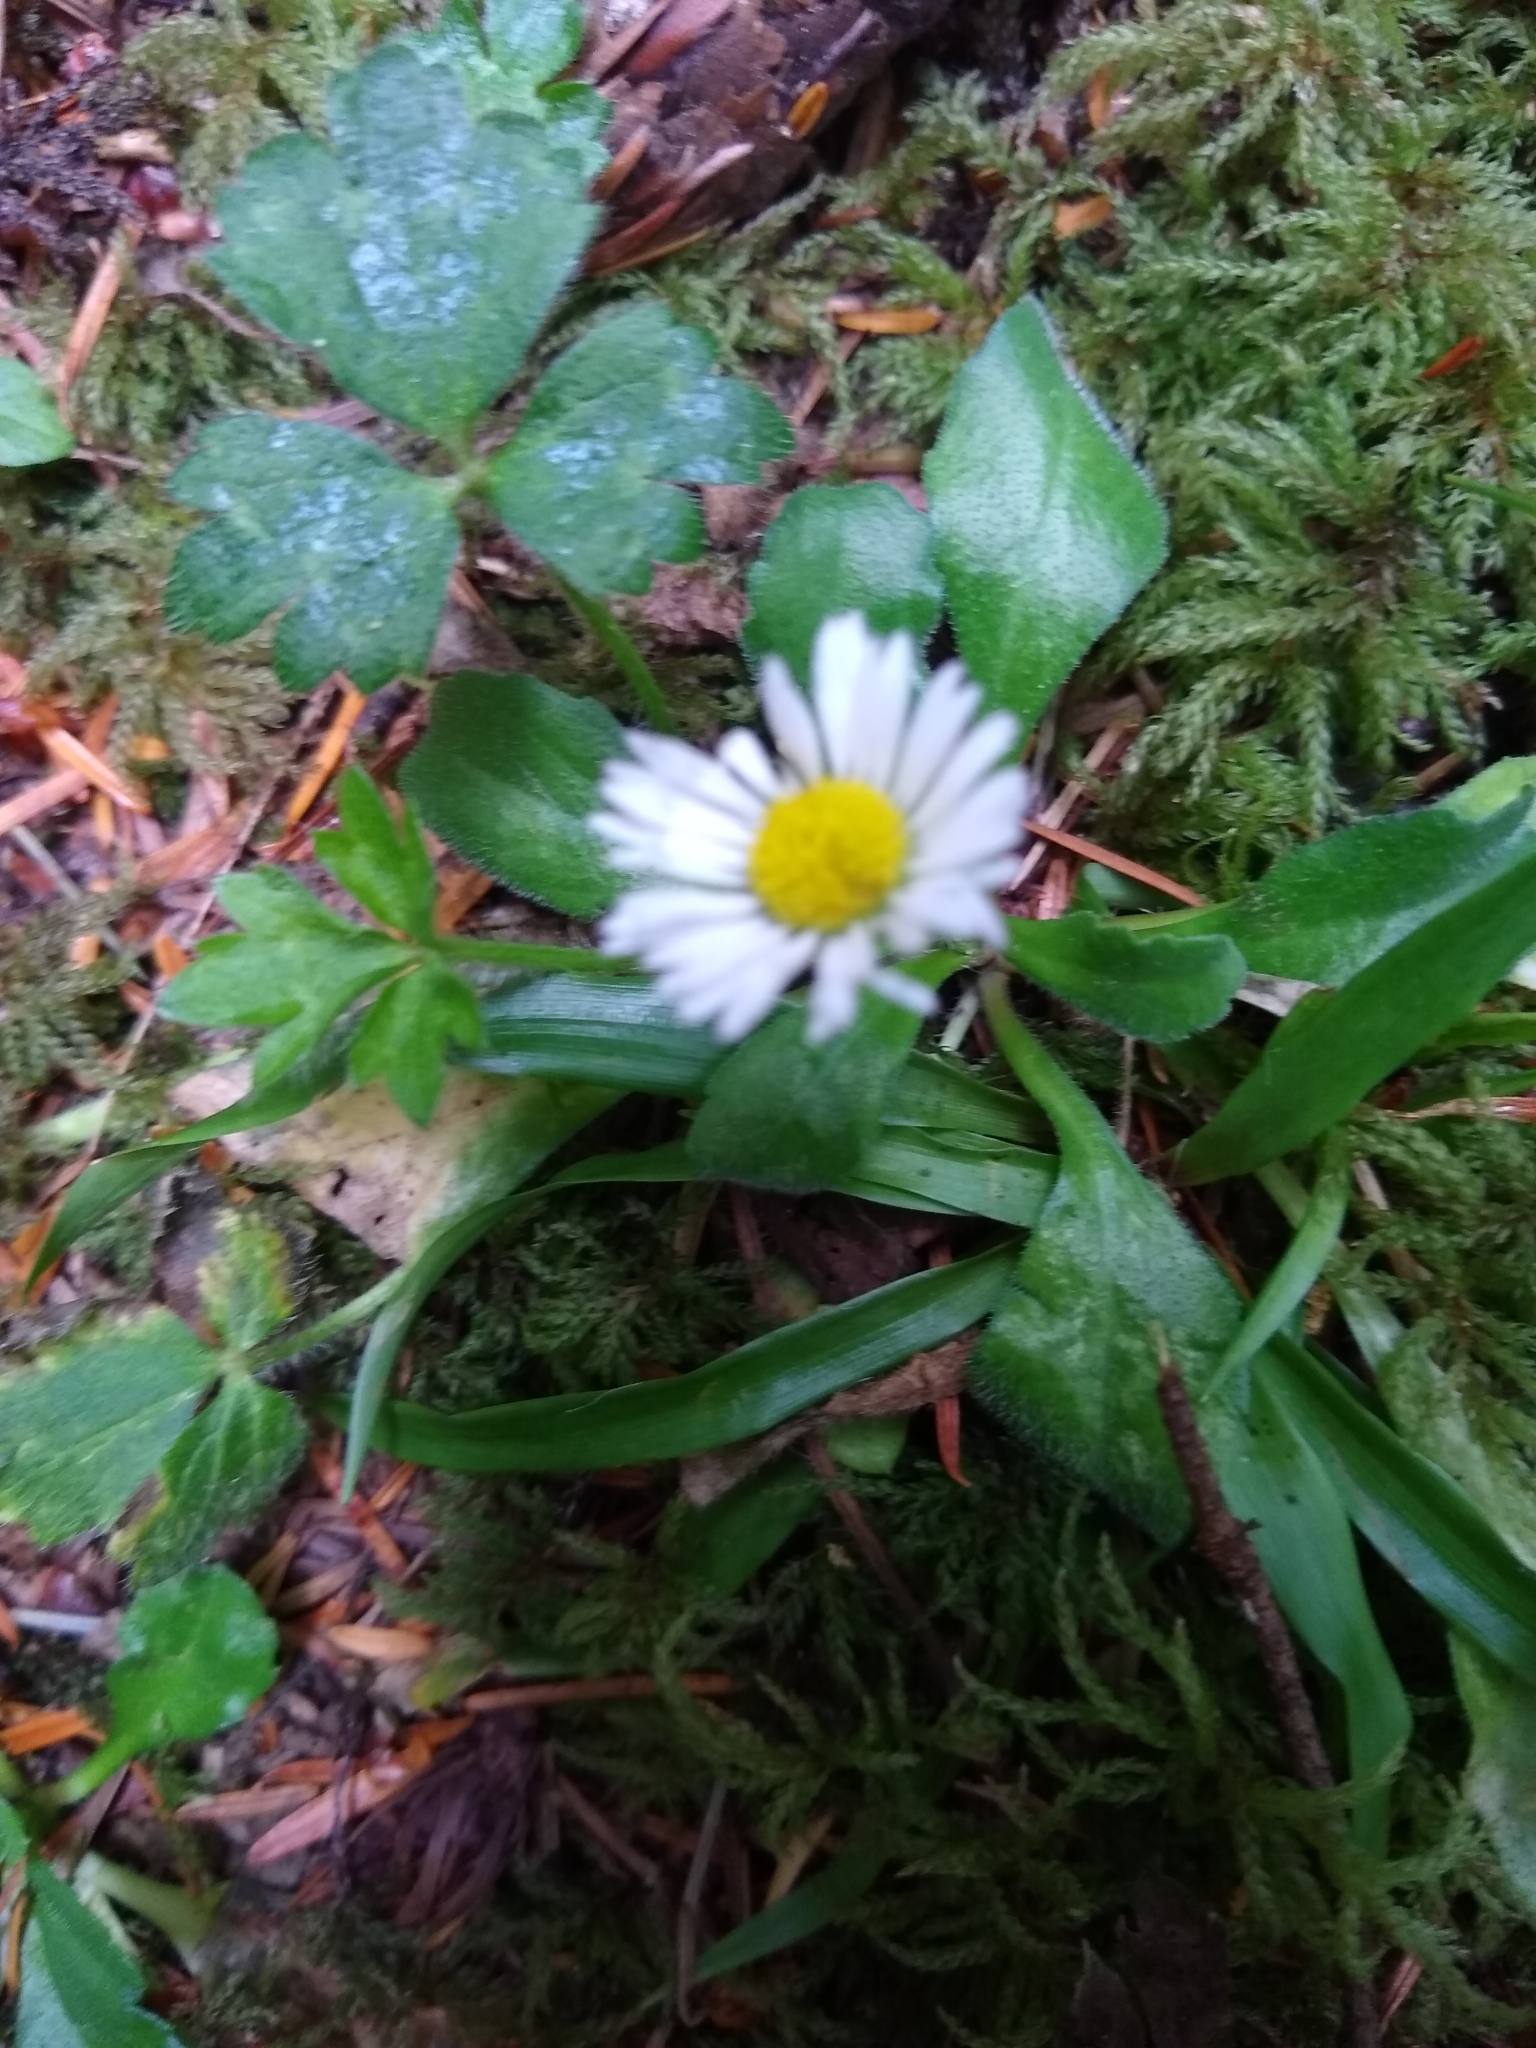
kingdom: Plantae
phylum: Tracheophyta
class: Magnoliopsida
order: Asterales
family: Asteraceae
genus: Bellis
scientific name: Bellis perennis
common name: Lawndaisy
